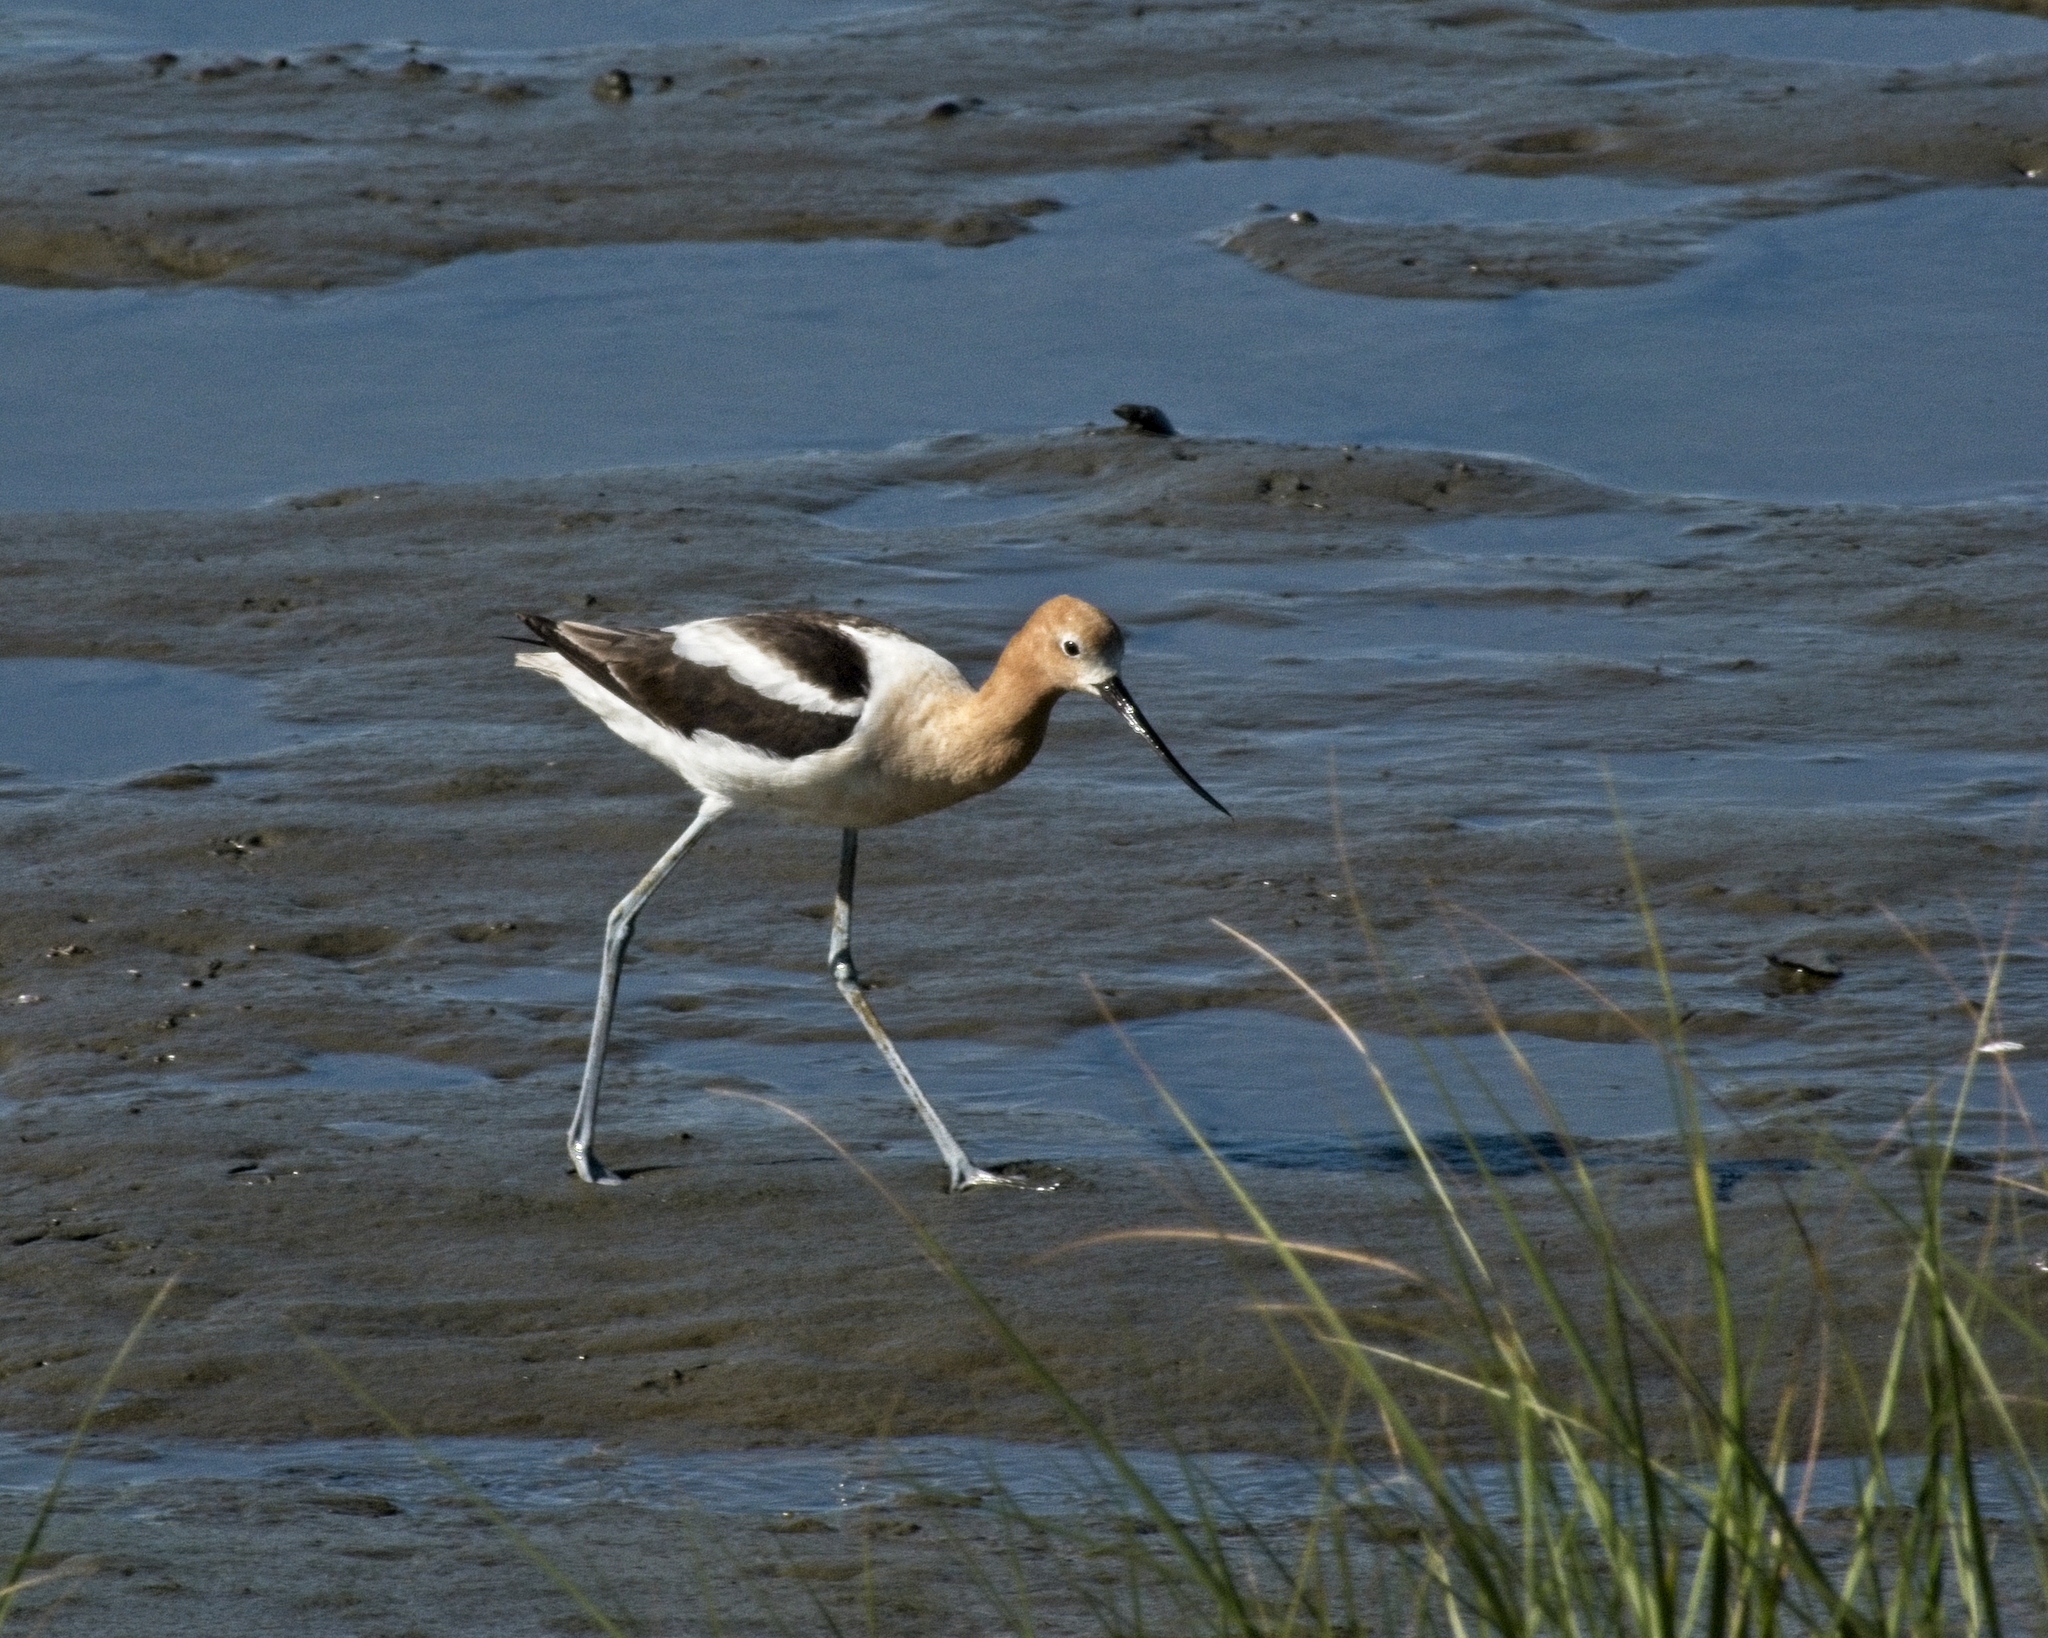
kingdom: Animalia
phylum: Chordata
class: Aves
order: Charadriiformes
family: Recurvirostridae
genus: Recurvirostra
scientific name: Recurvirostra americana
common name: American avocet
